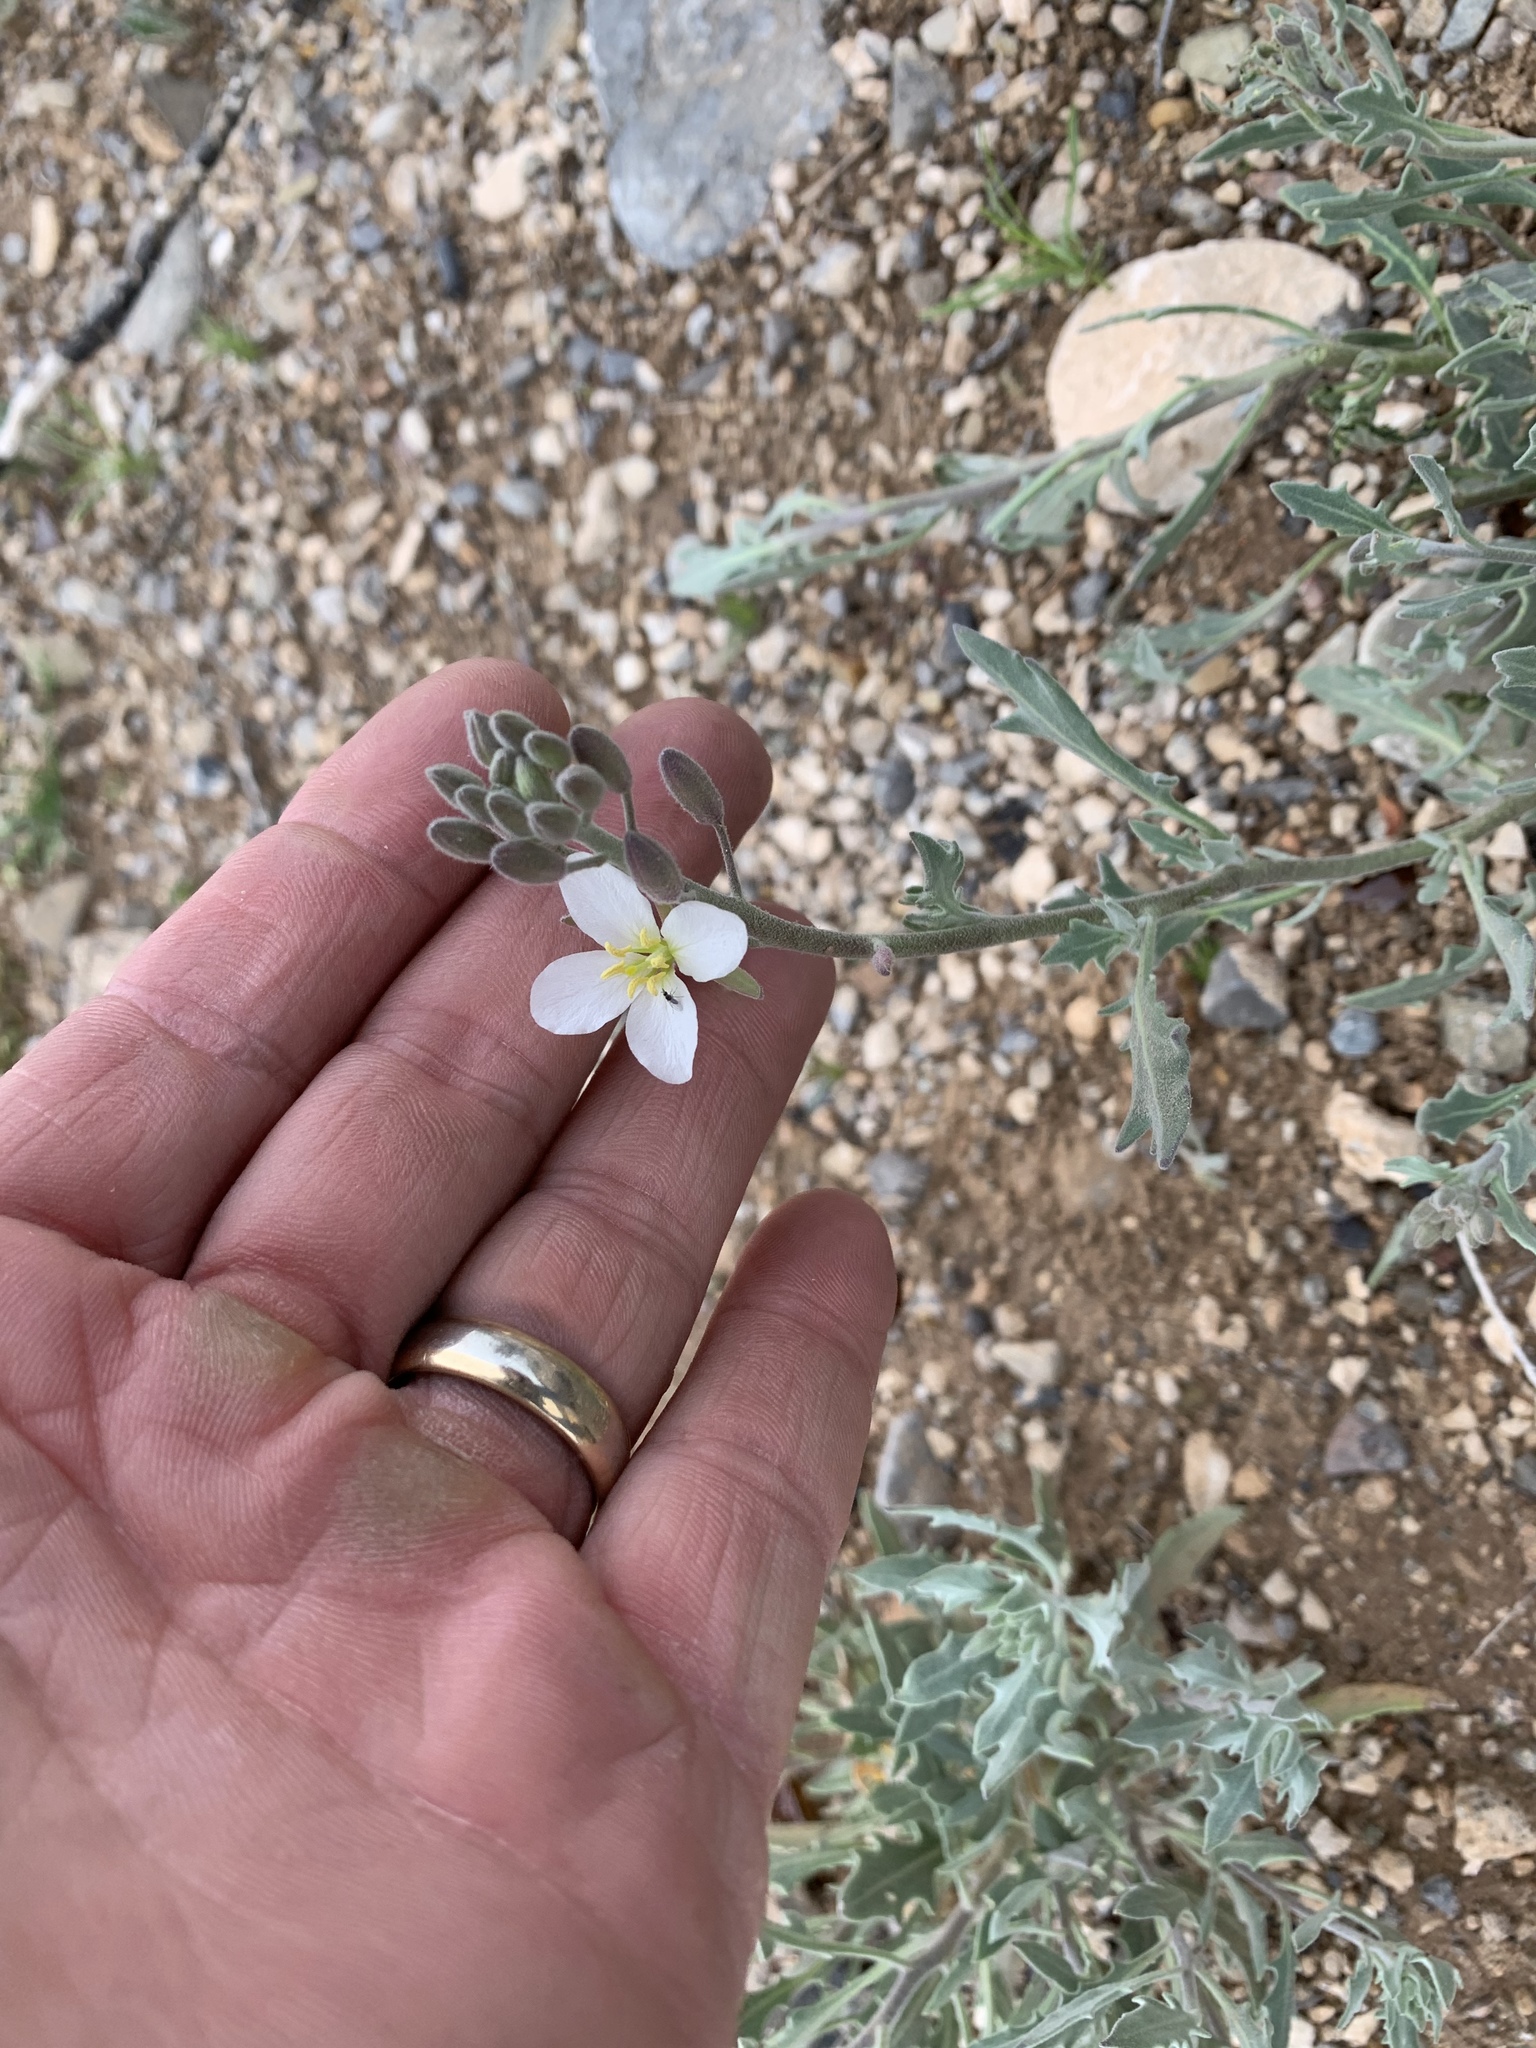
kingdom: Plantae
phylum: Tracheophyta
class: Magnoliopsida
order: Brassicales
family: Brassicaceae
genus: Nerisyrenia
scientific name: Nerisyrenia camporum
